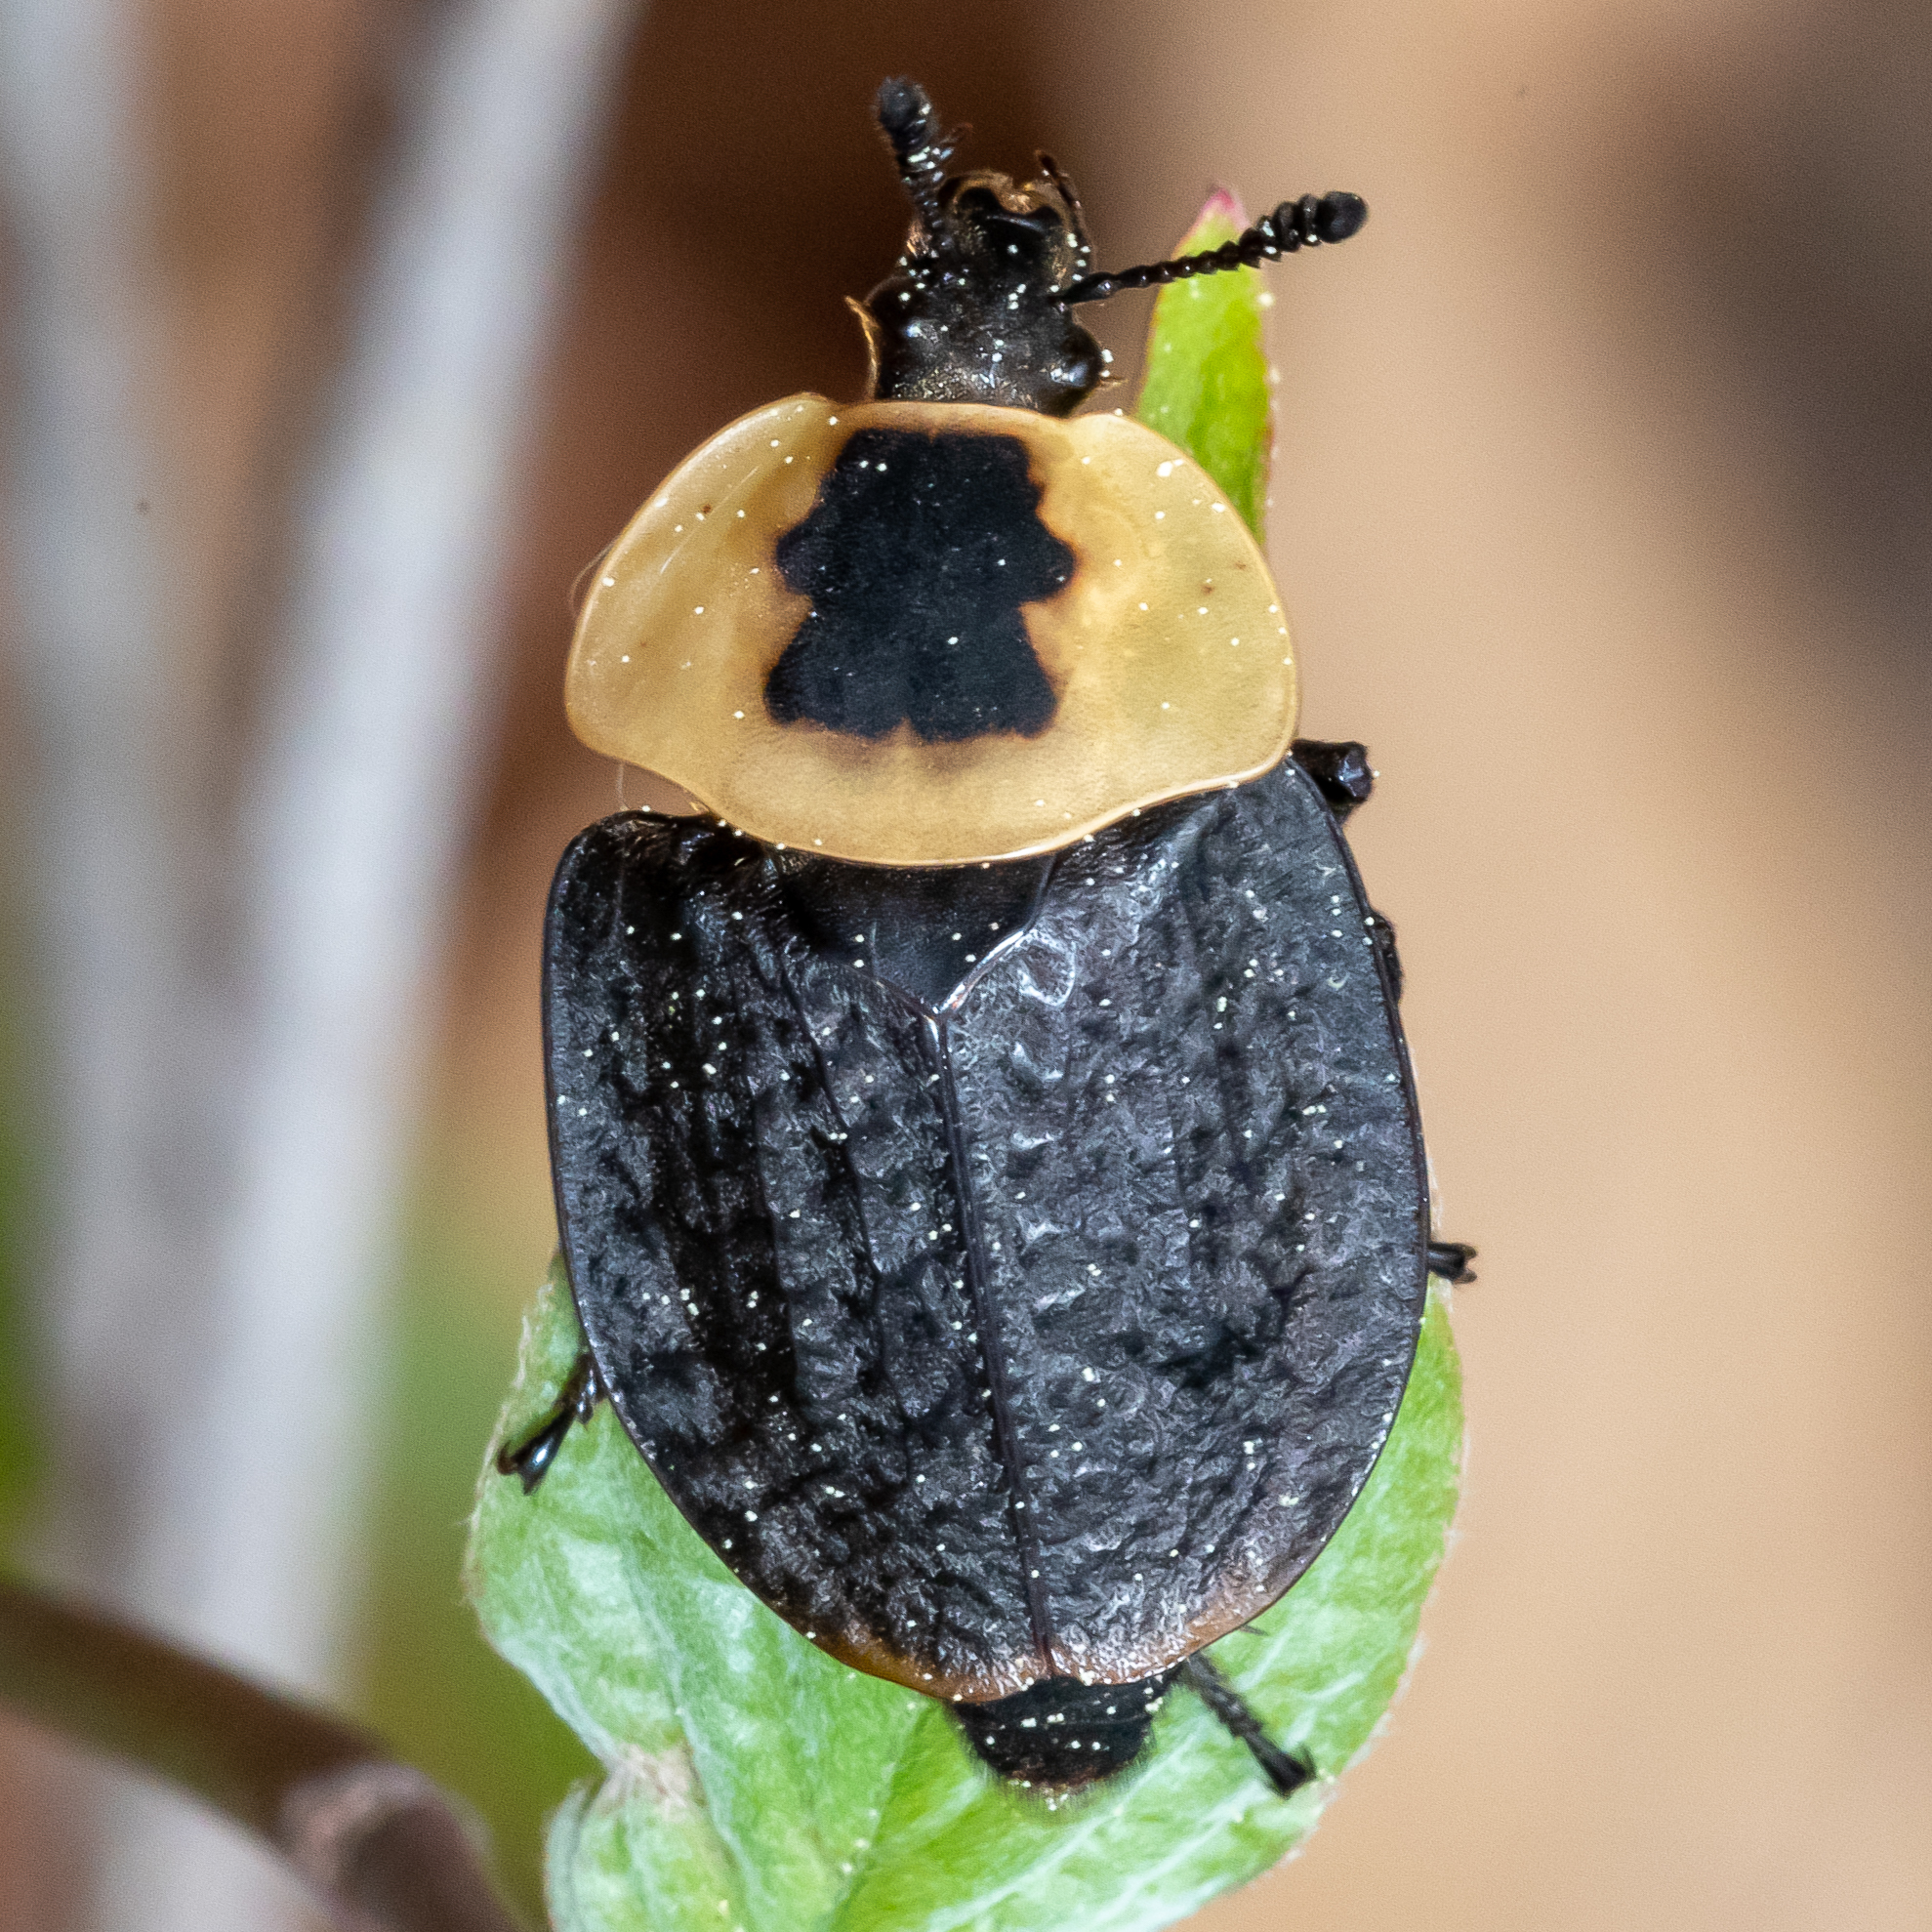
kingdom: Animalia
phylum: Arthropoda
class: Insecta
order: Coleoptera
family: Staphylinidae
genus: Necrophila
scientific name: Necrophila americana
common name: American carrion beetle
